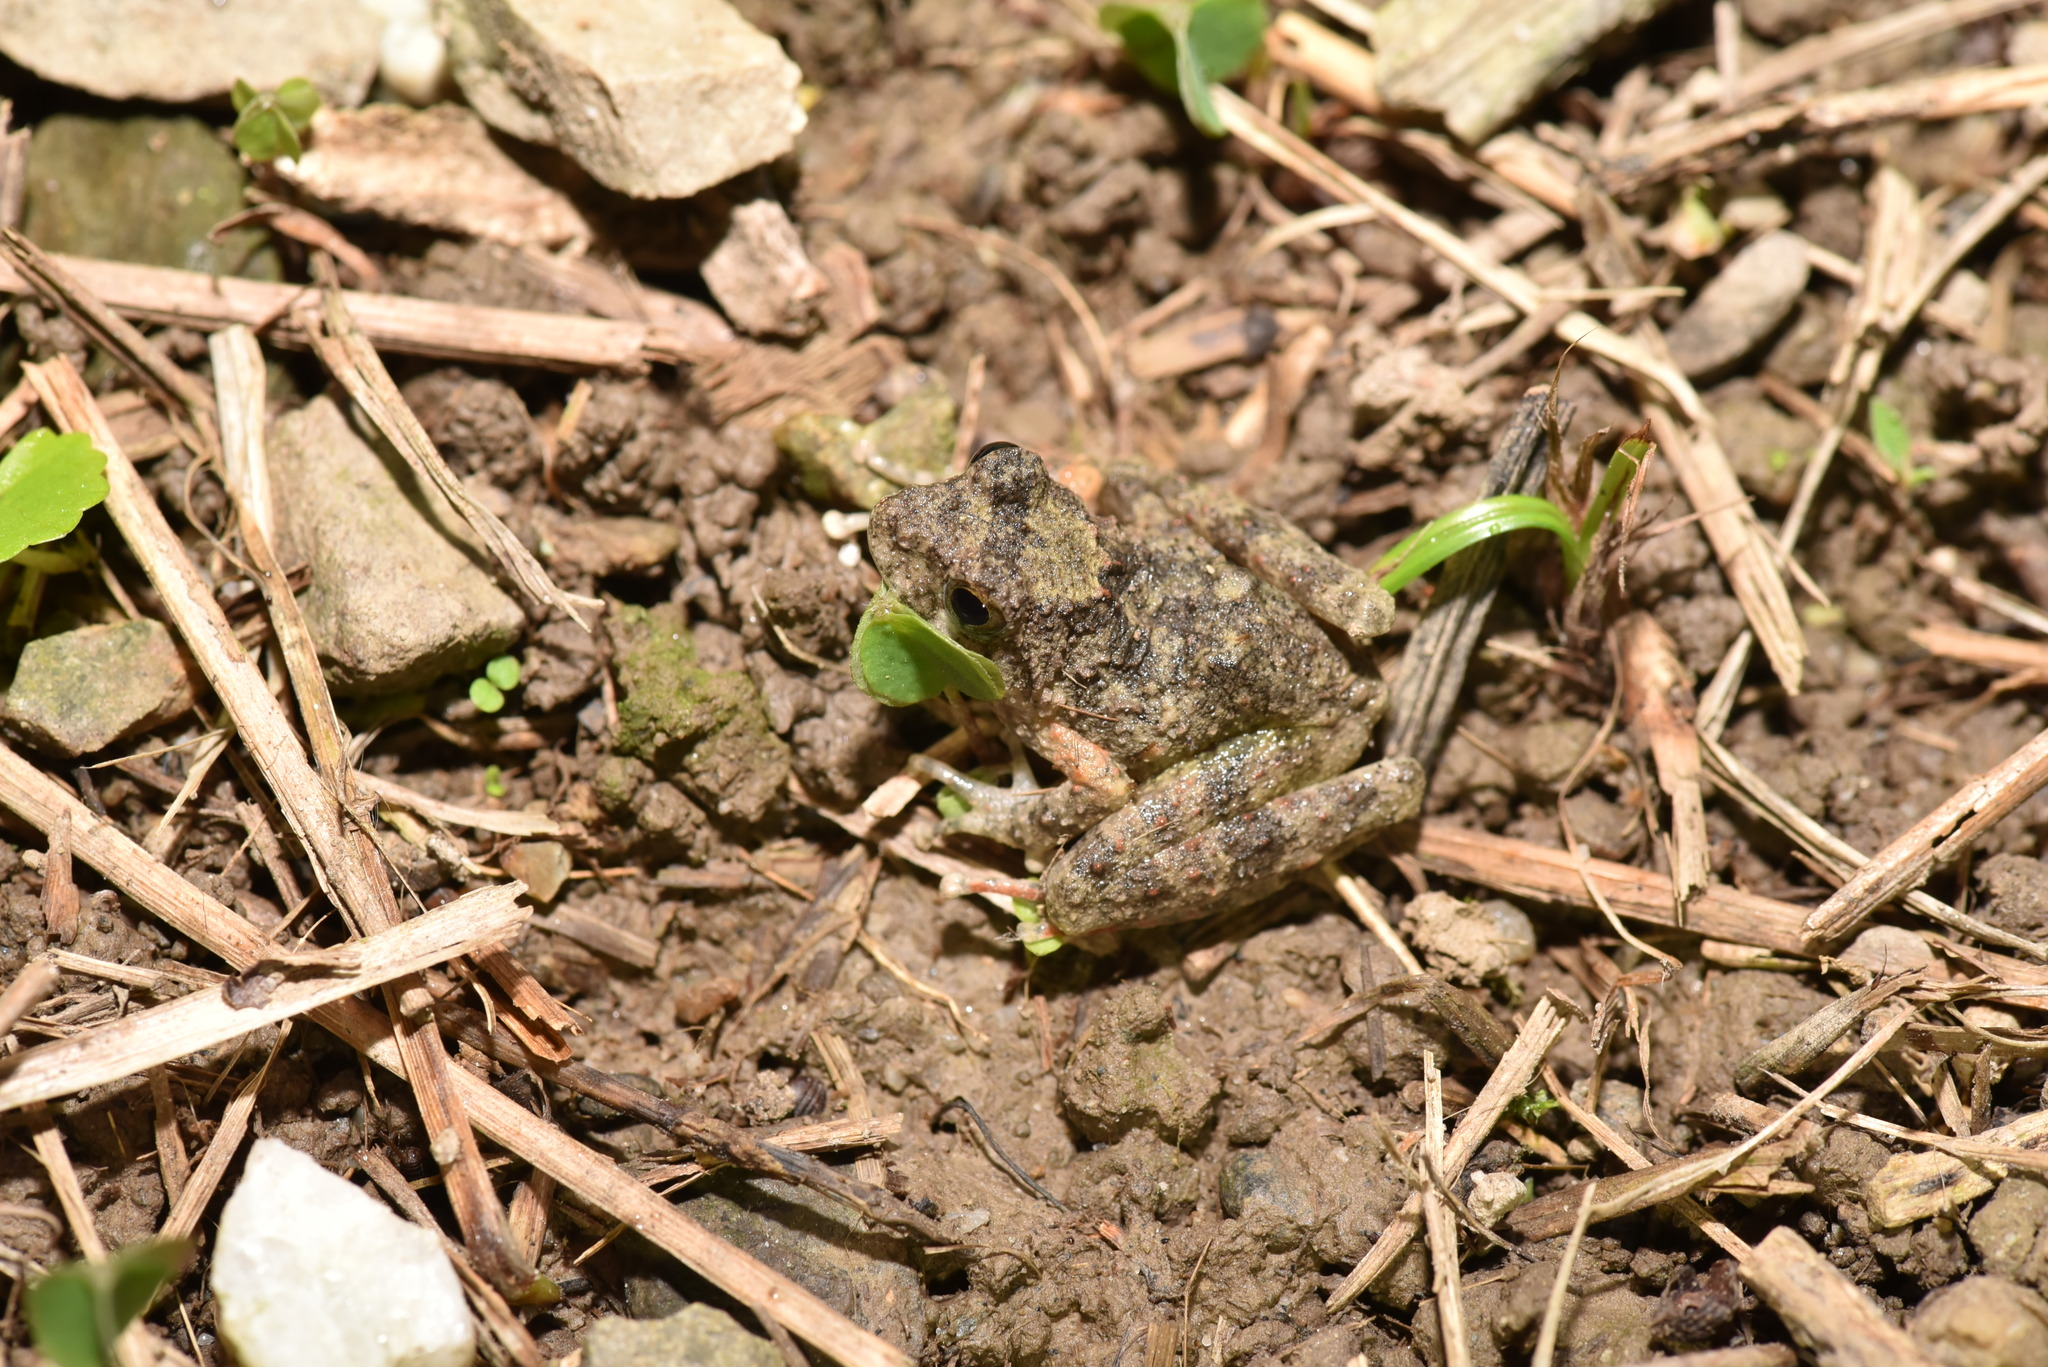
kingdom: Animalia
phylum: Chordata
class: Amphibia
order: Anura
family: Rhacophoridae
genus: Buergeria
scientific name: Buergeria otai
